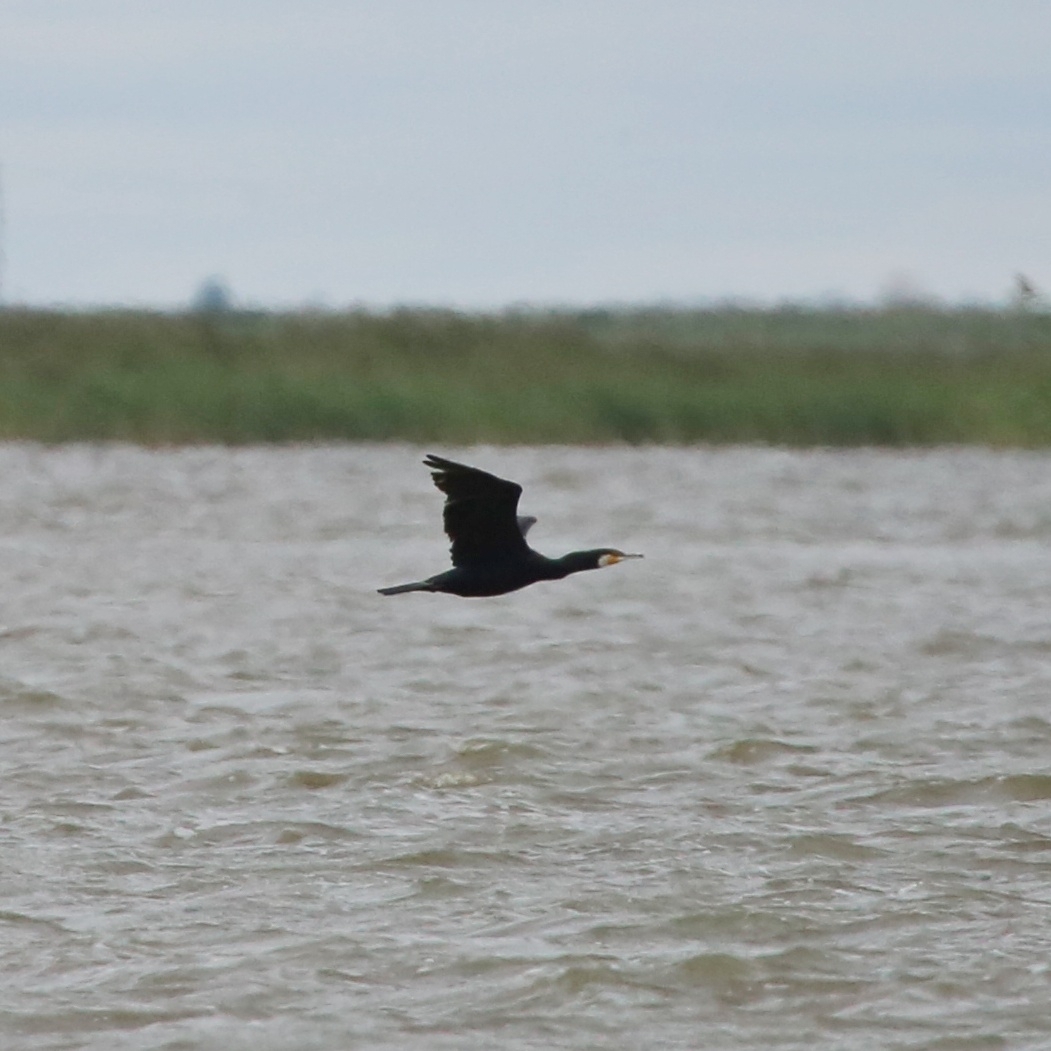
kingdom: Animalia
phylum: Chordata
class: Aves
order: Suliformes
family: Phalacrocoracidae
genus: Phalacrocorax
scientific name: Phalacrocorax carbo
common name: Great cormorant
